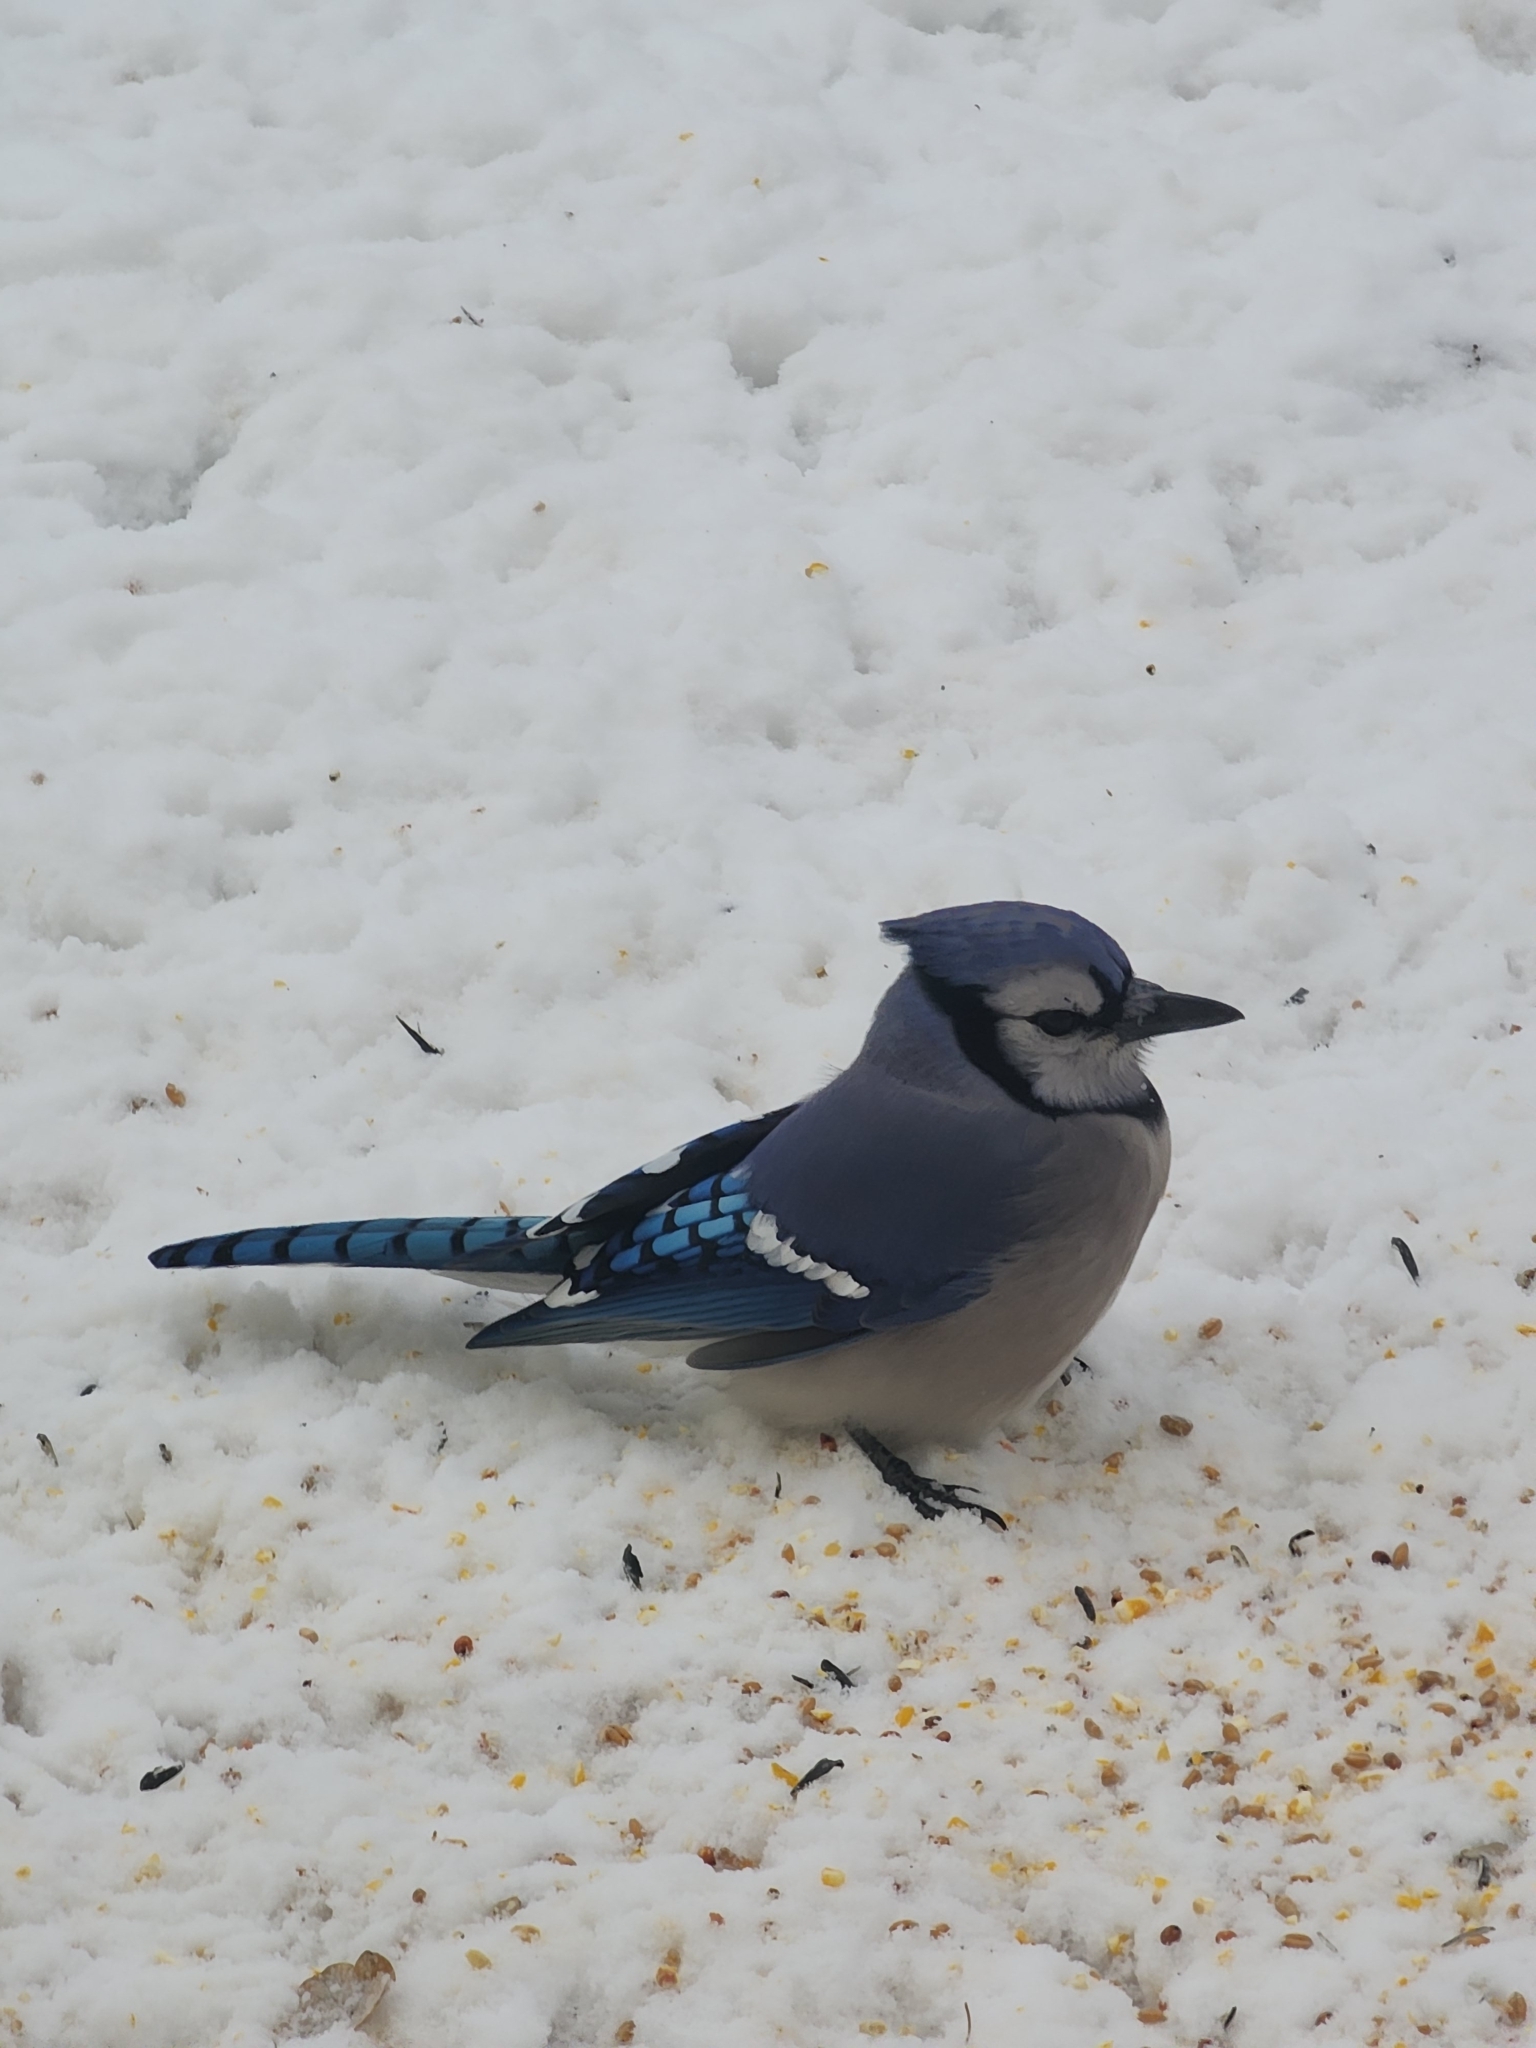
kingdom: Animalia
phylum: Chordata
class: Aves
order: Passeriformes
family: Corvidae
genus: Cyanocitta
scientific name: Cyanocitta cristata
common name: Blue jay
